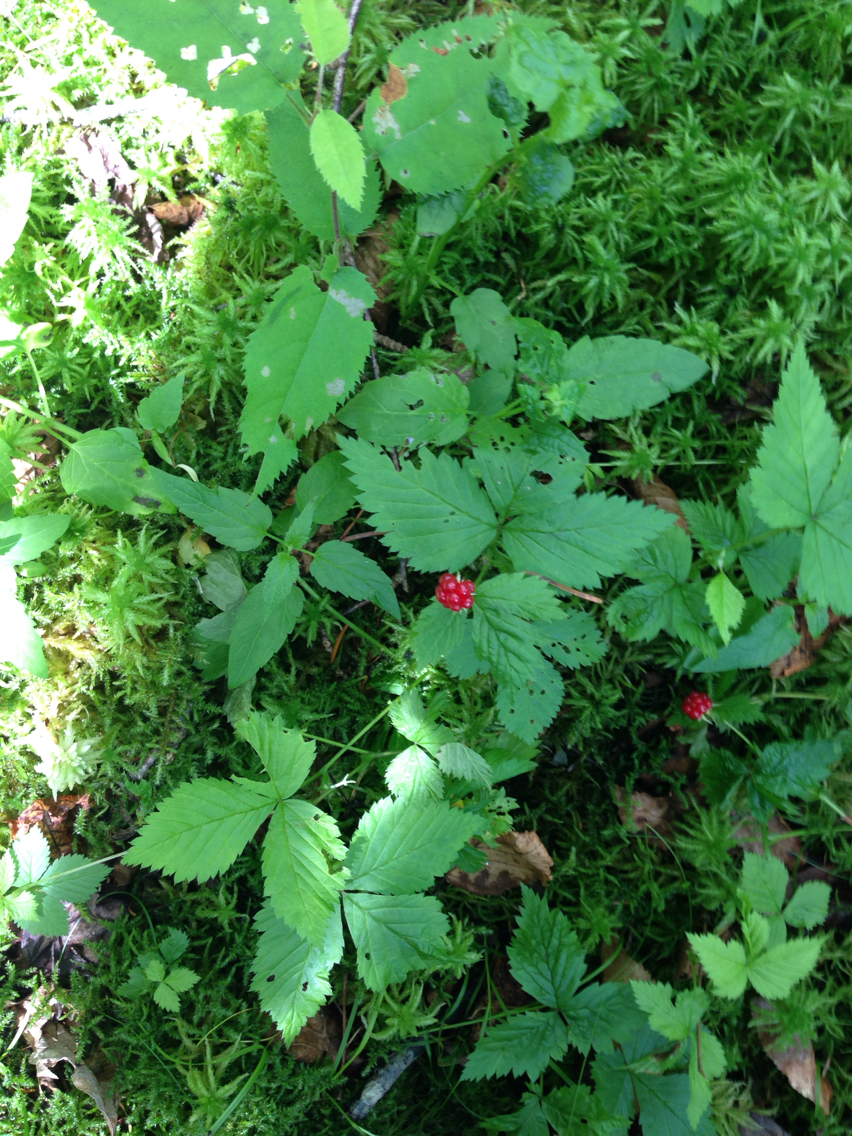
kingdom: Plantae
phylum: Tracheophyta
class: Magnoliopsida
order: Rosales
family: Rosaceae
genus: Rubus
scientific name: Rubus pubescens
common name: Dwarf raspberry
